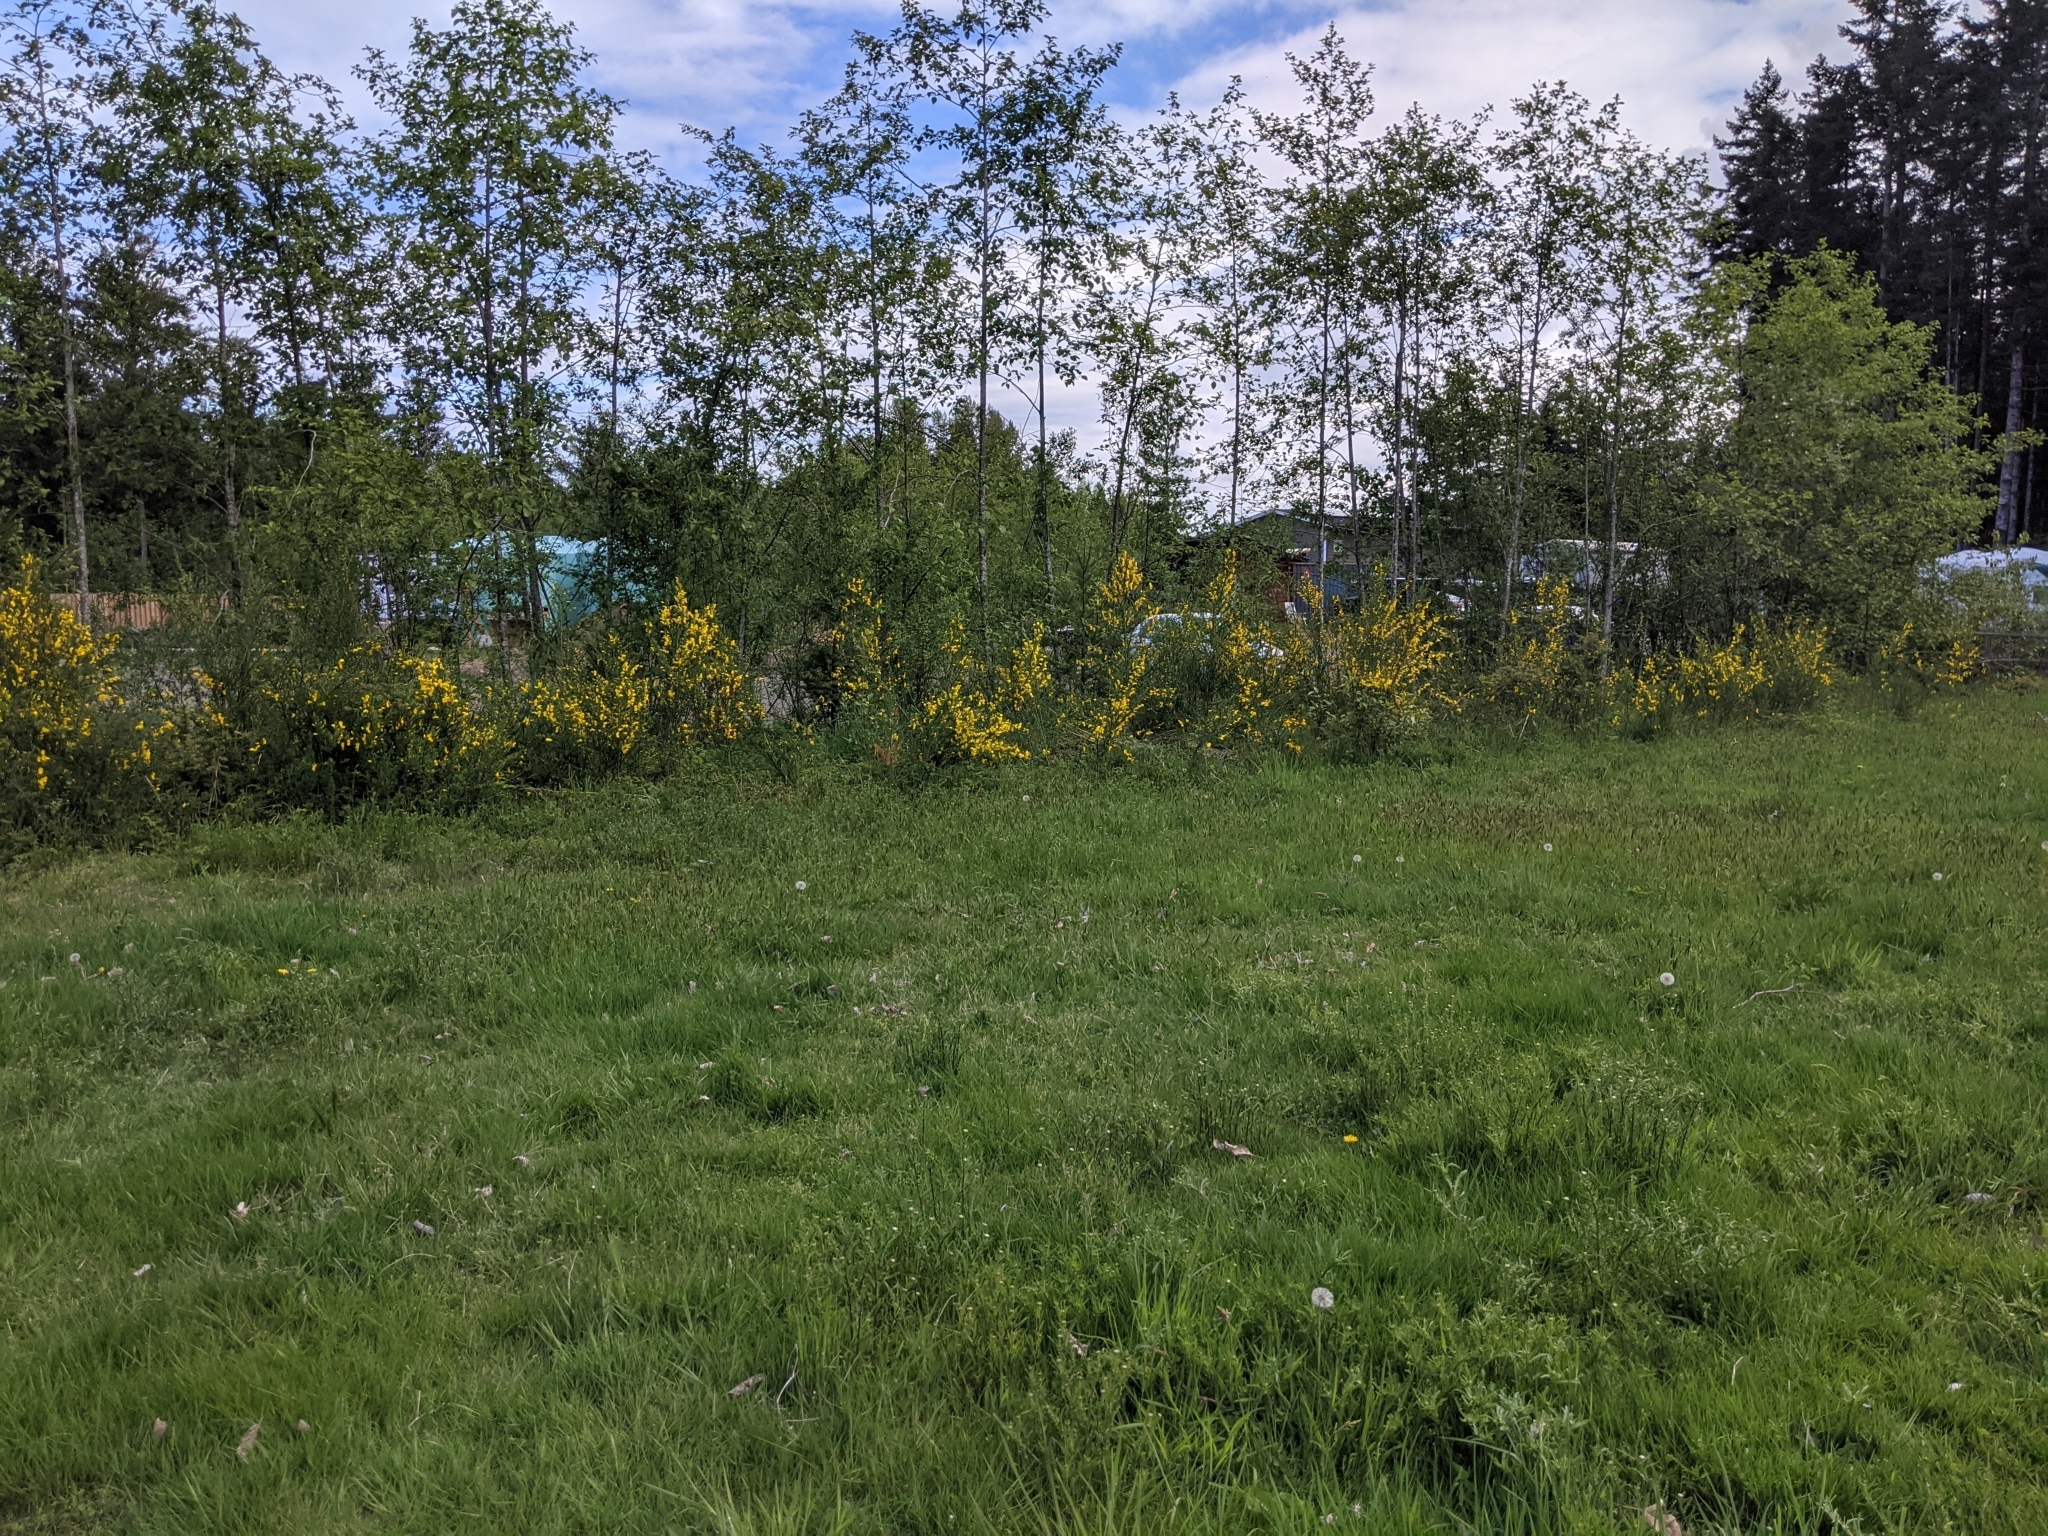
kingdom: Plantae
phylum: Tracheophyta
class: Magnoliopsida
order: Fabales
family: Fabaceae
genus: Cytisus
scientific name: Cytisus scoparius
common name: Scotch broom
